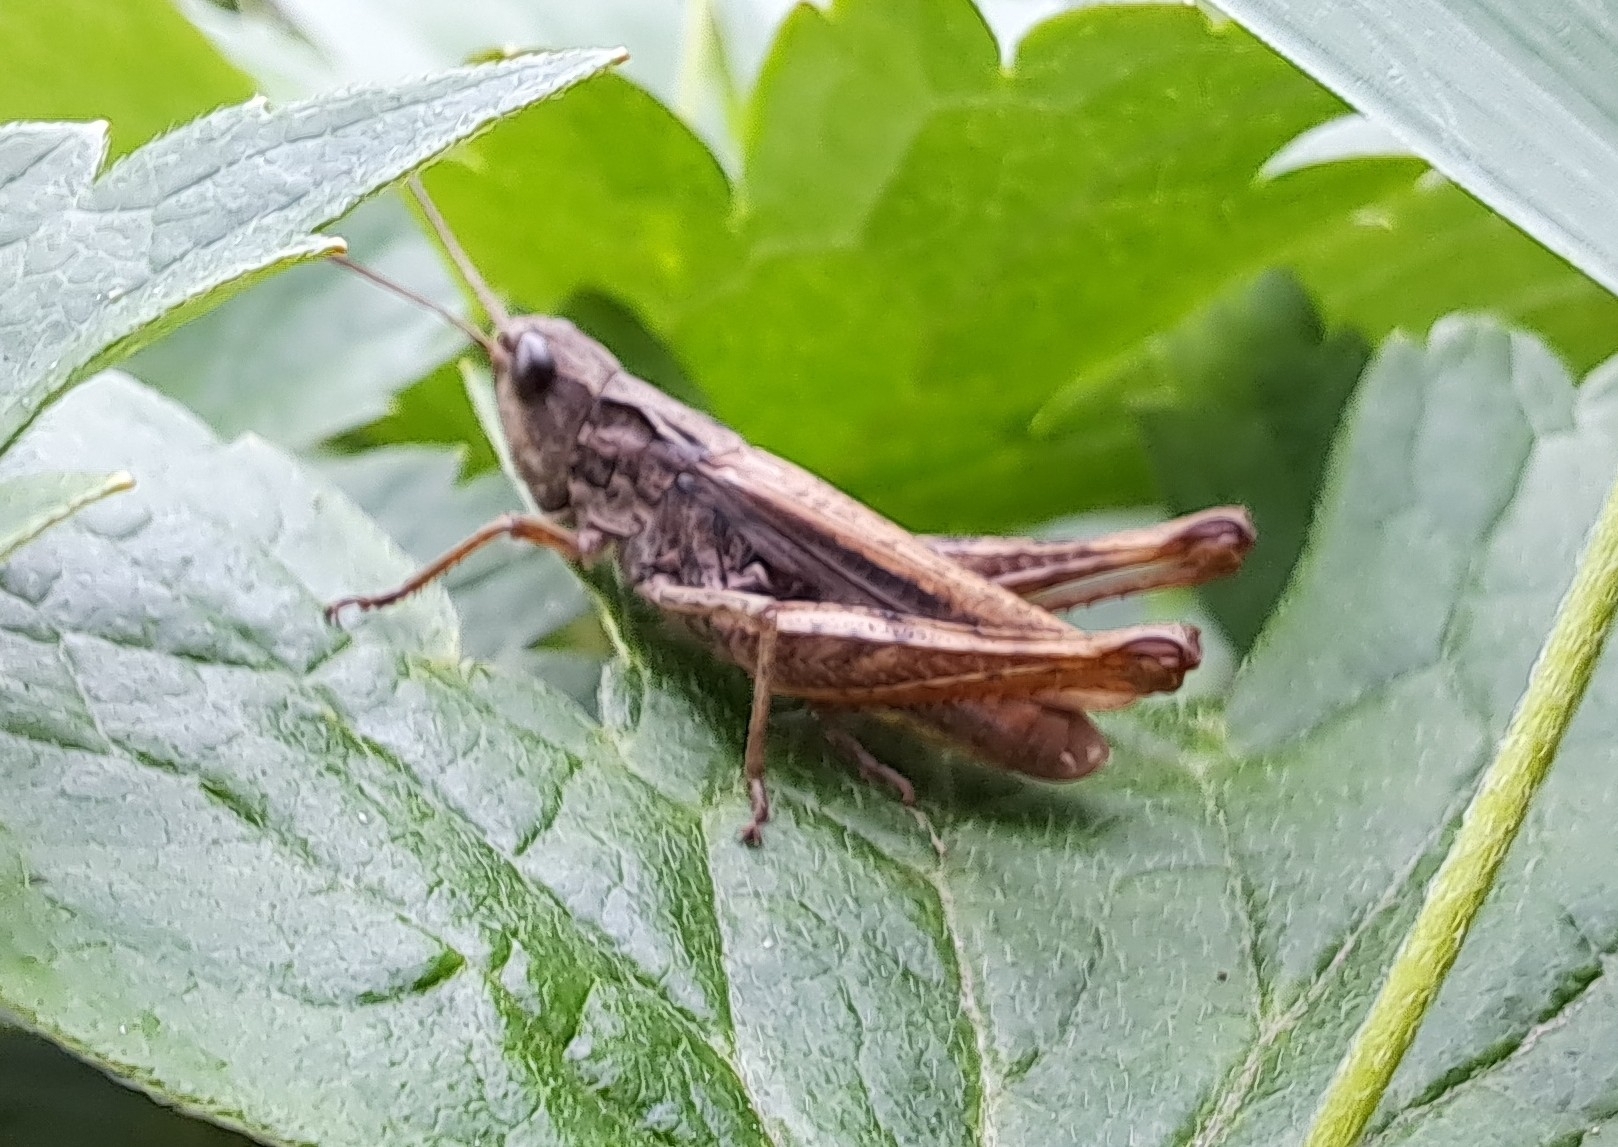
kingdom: Animalia
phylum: Arthropoda
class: Insecta
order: Orthoptera
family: Acrididae
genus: Chorthippus
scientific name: Chorthippus apricarius
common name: Upland field grasshopper
